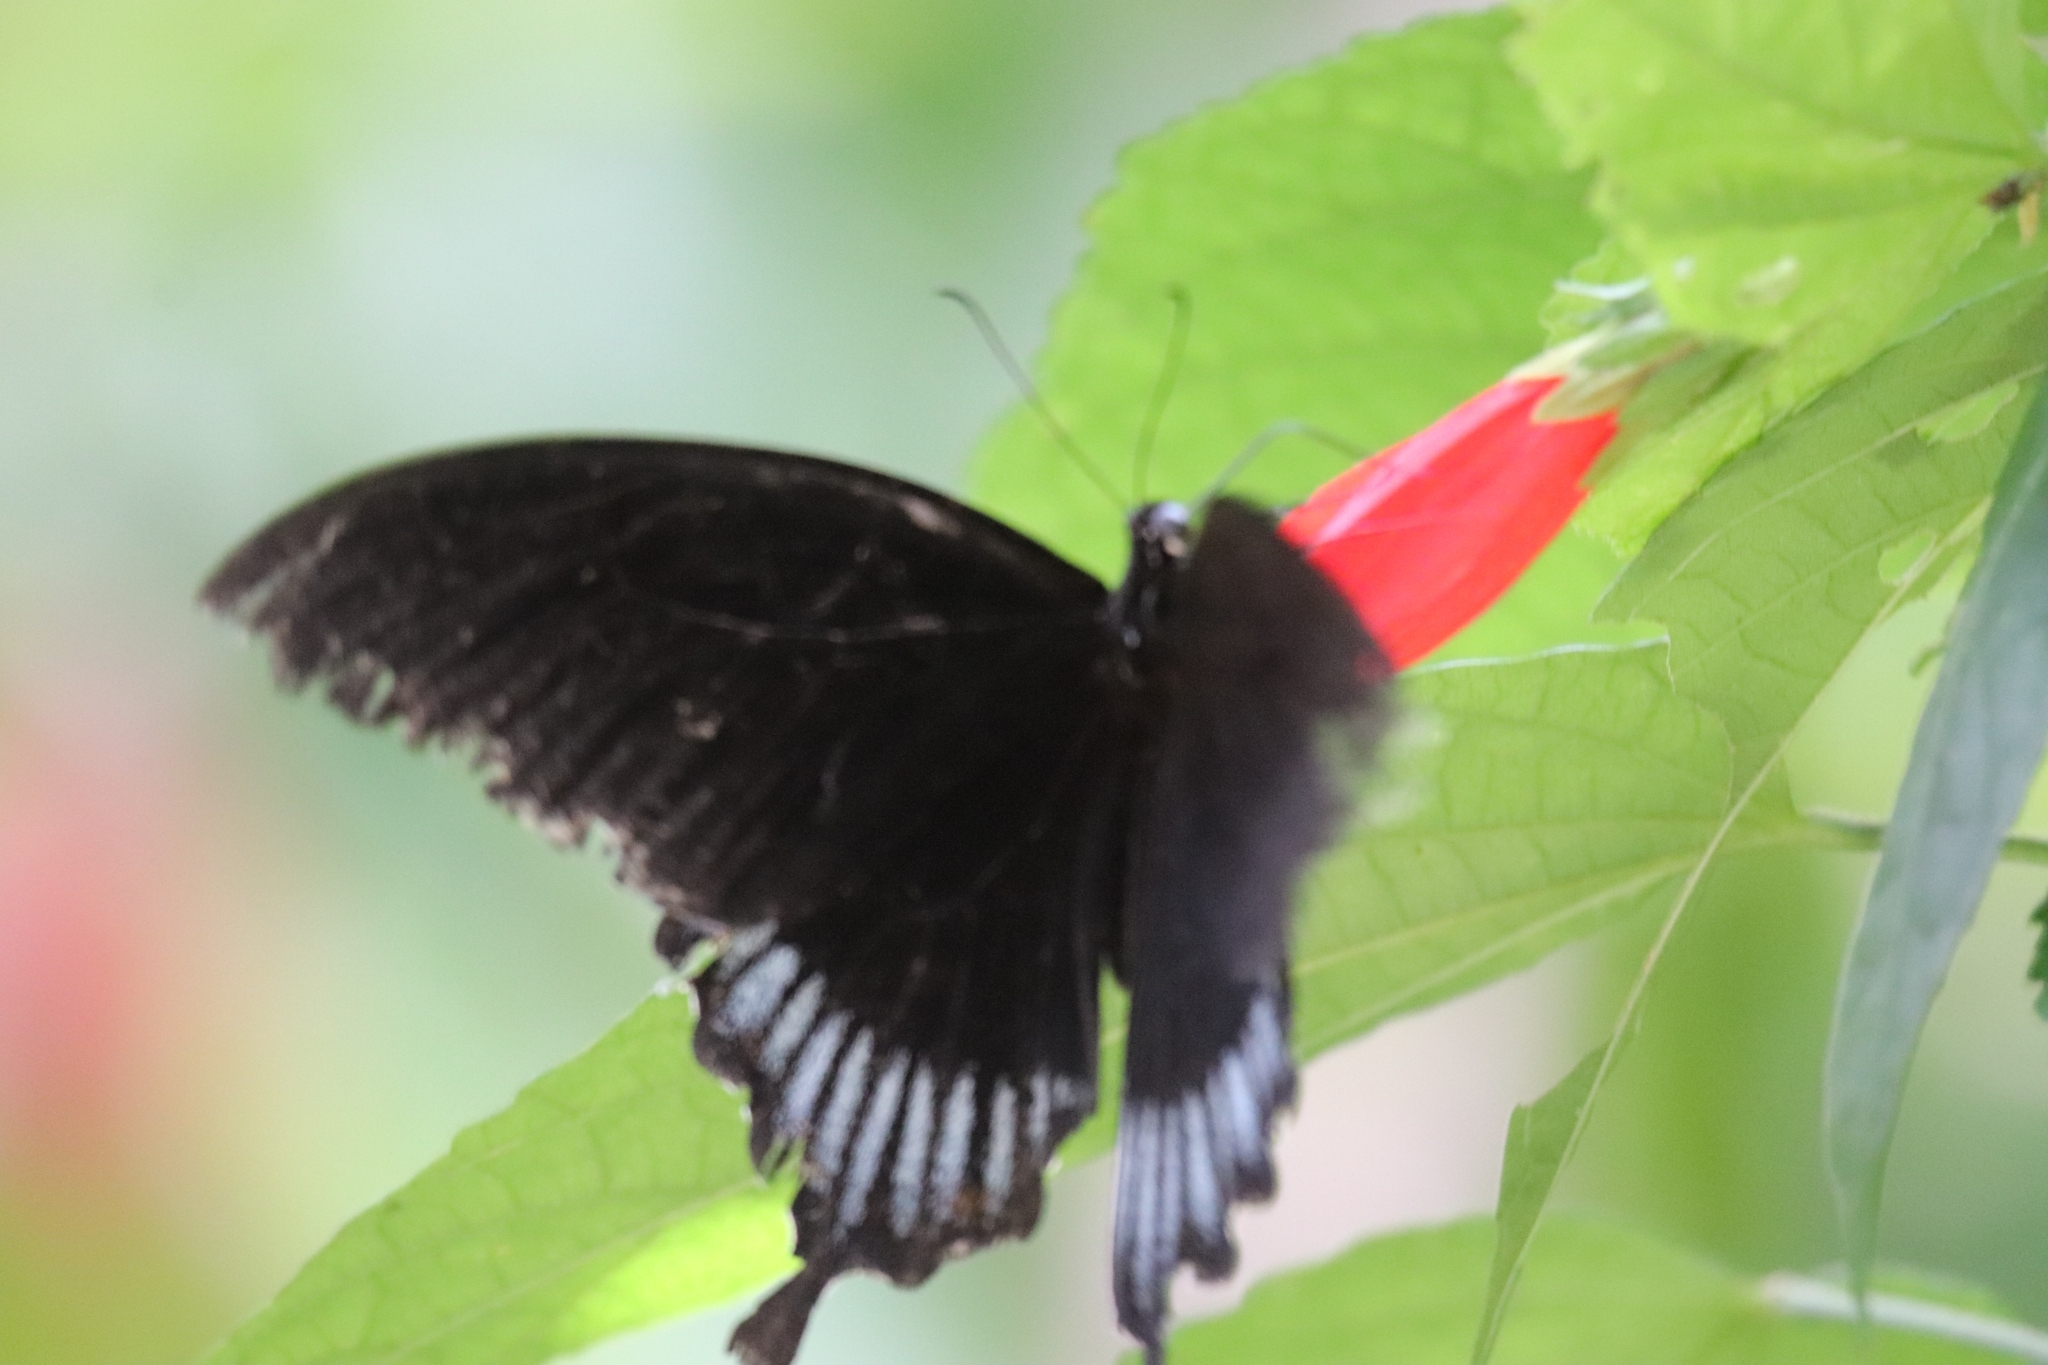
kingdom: Animalia
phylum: Arthropoda
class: Insecta
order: Lepidoptera
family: Papilionidae
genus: Papilio
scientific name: Papilio ascalaphus
